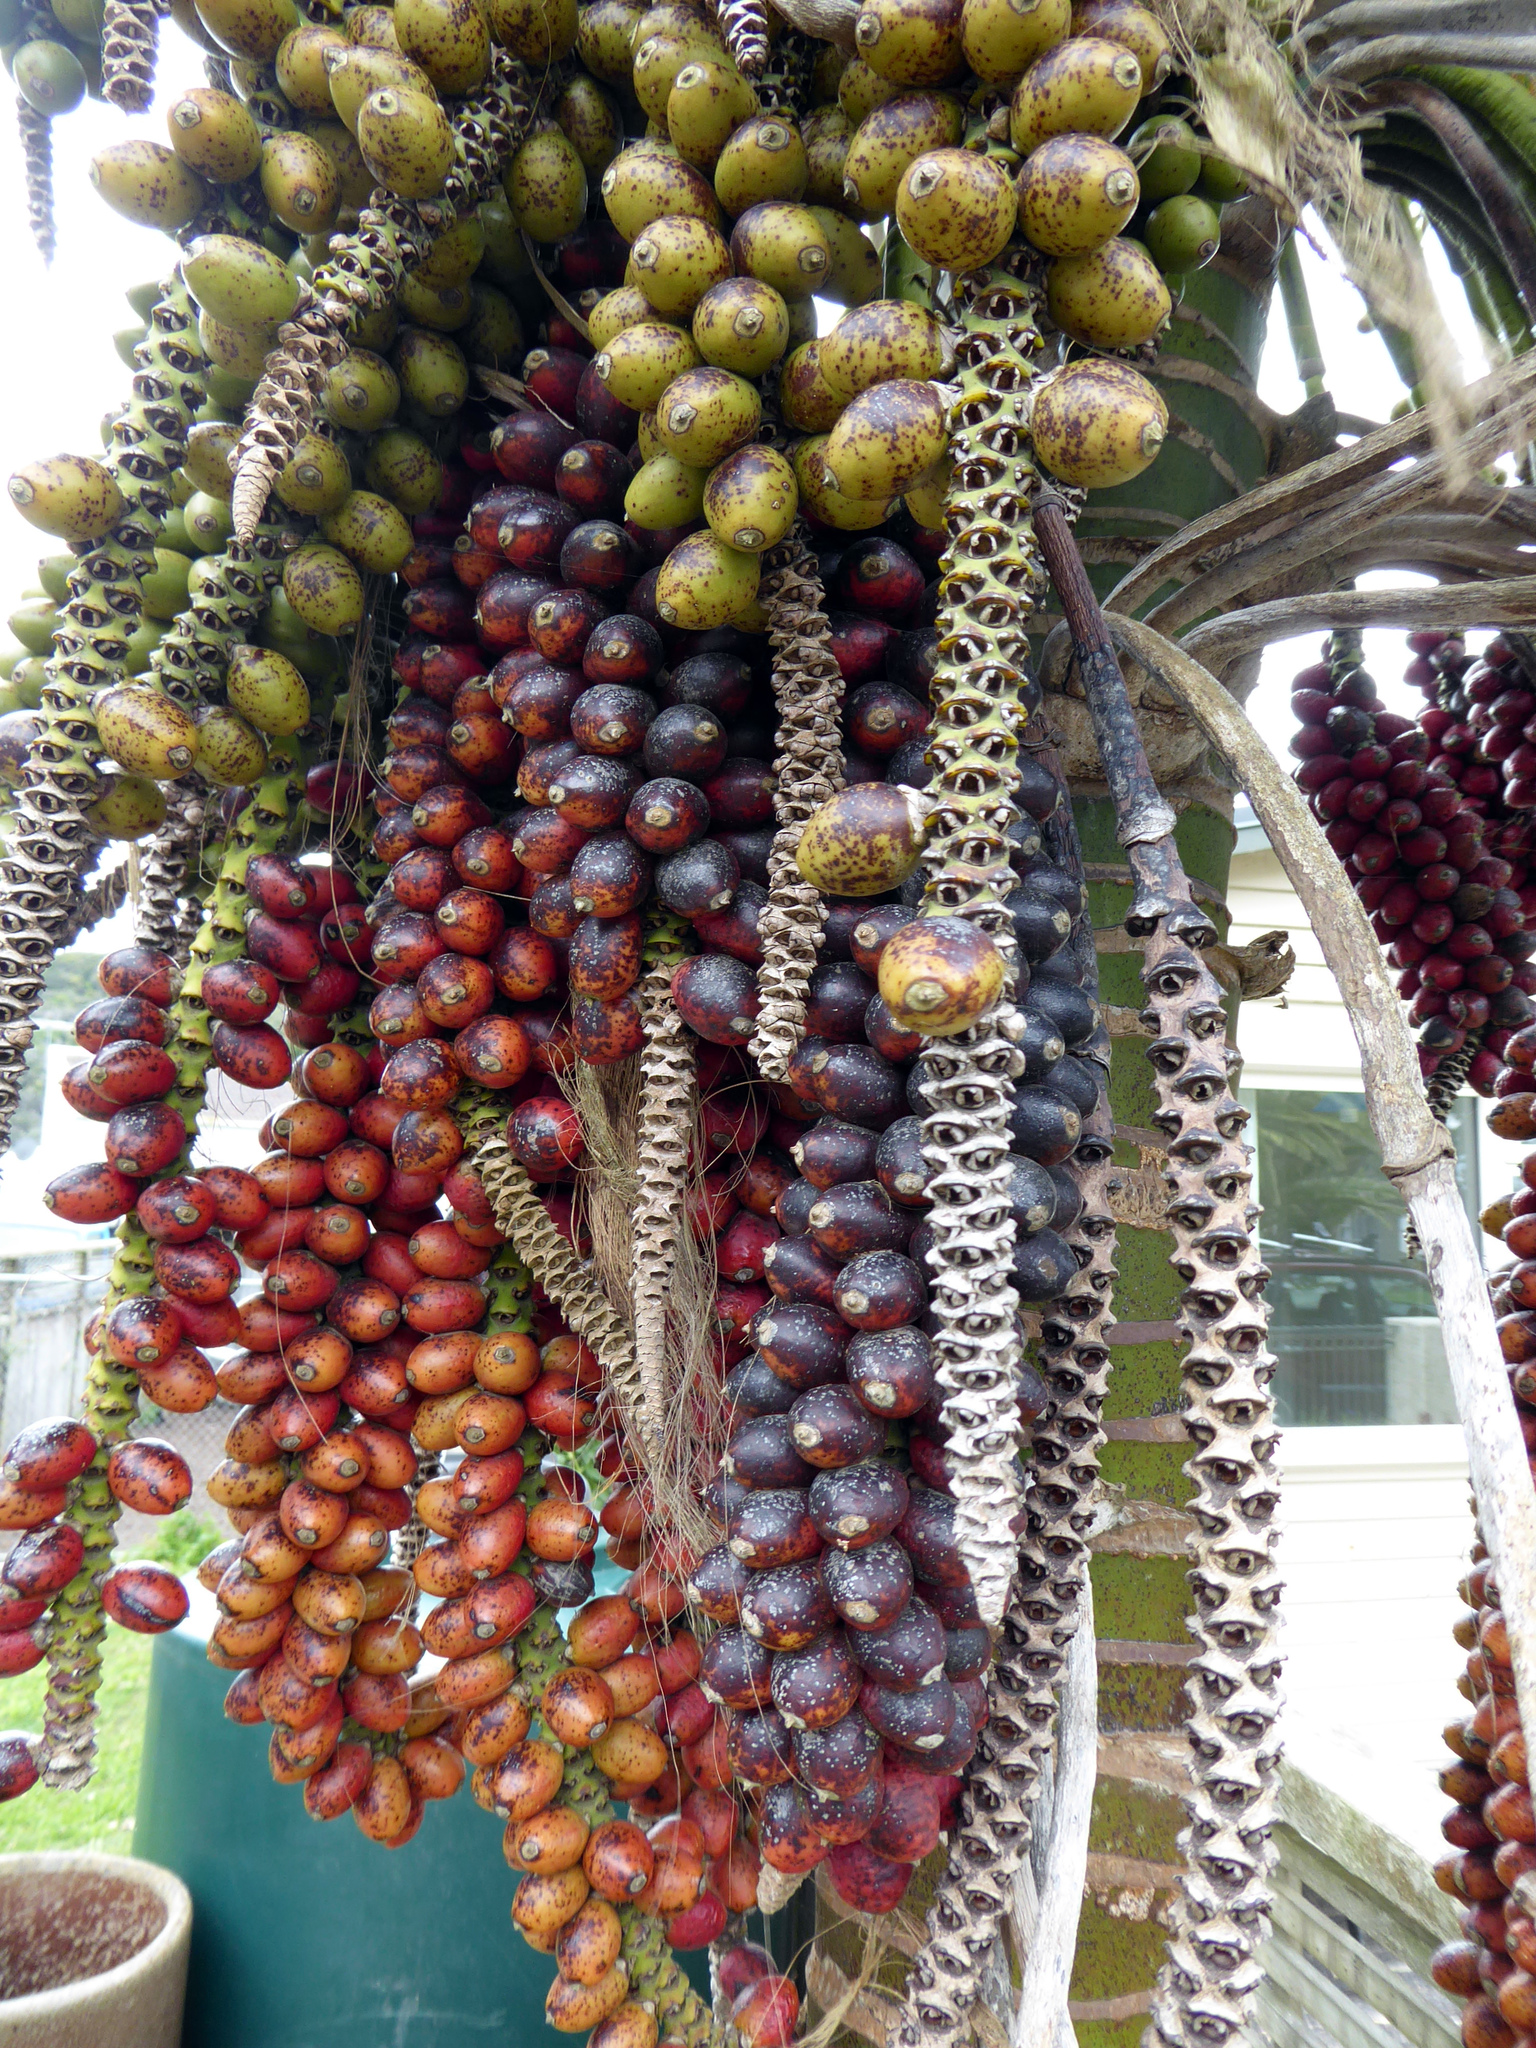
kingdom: Plantae
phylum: Tracheophyta
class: Liliopsida
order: Arecales
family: Arecaceae
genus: Howea
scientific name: Howea belmoreana
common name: Curly palm
